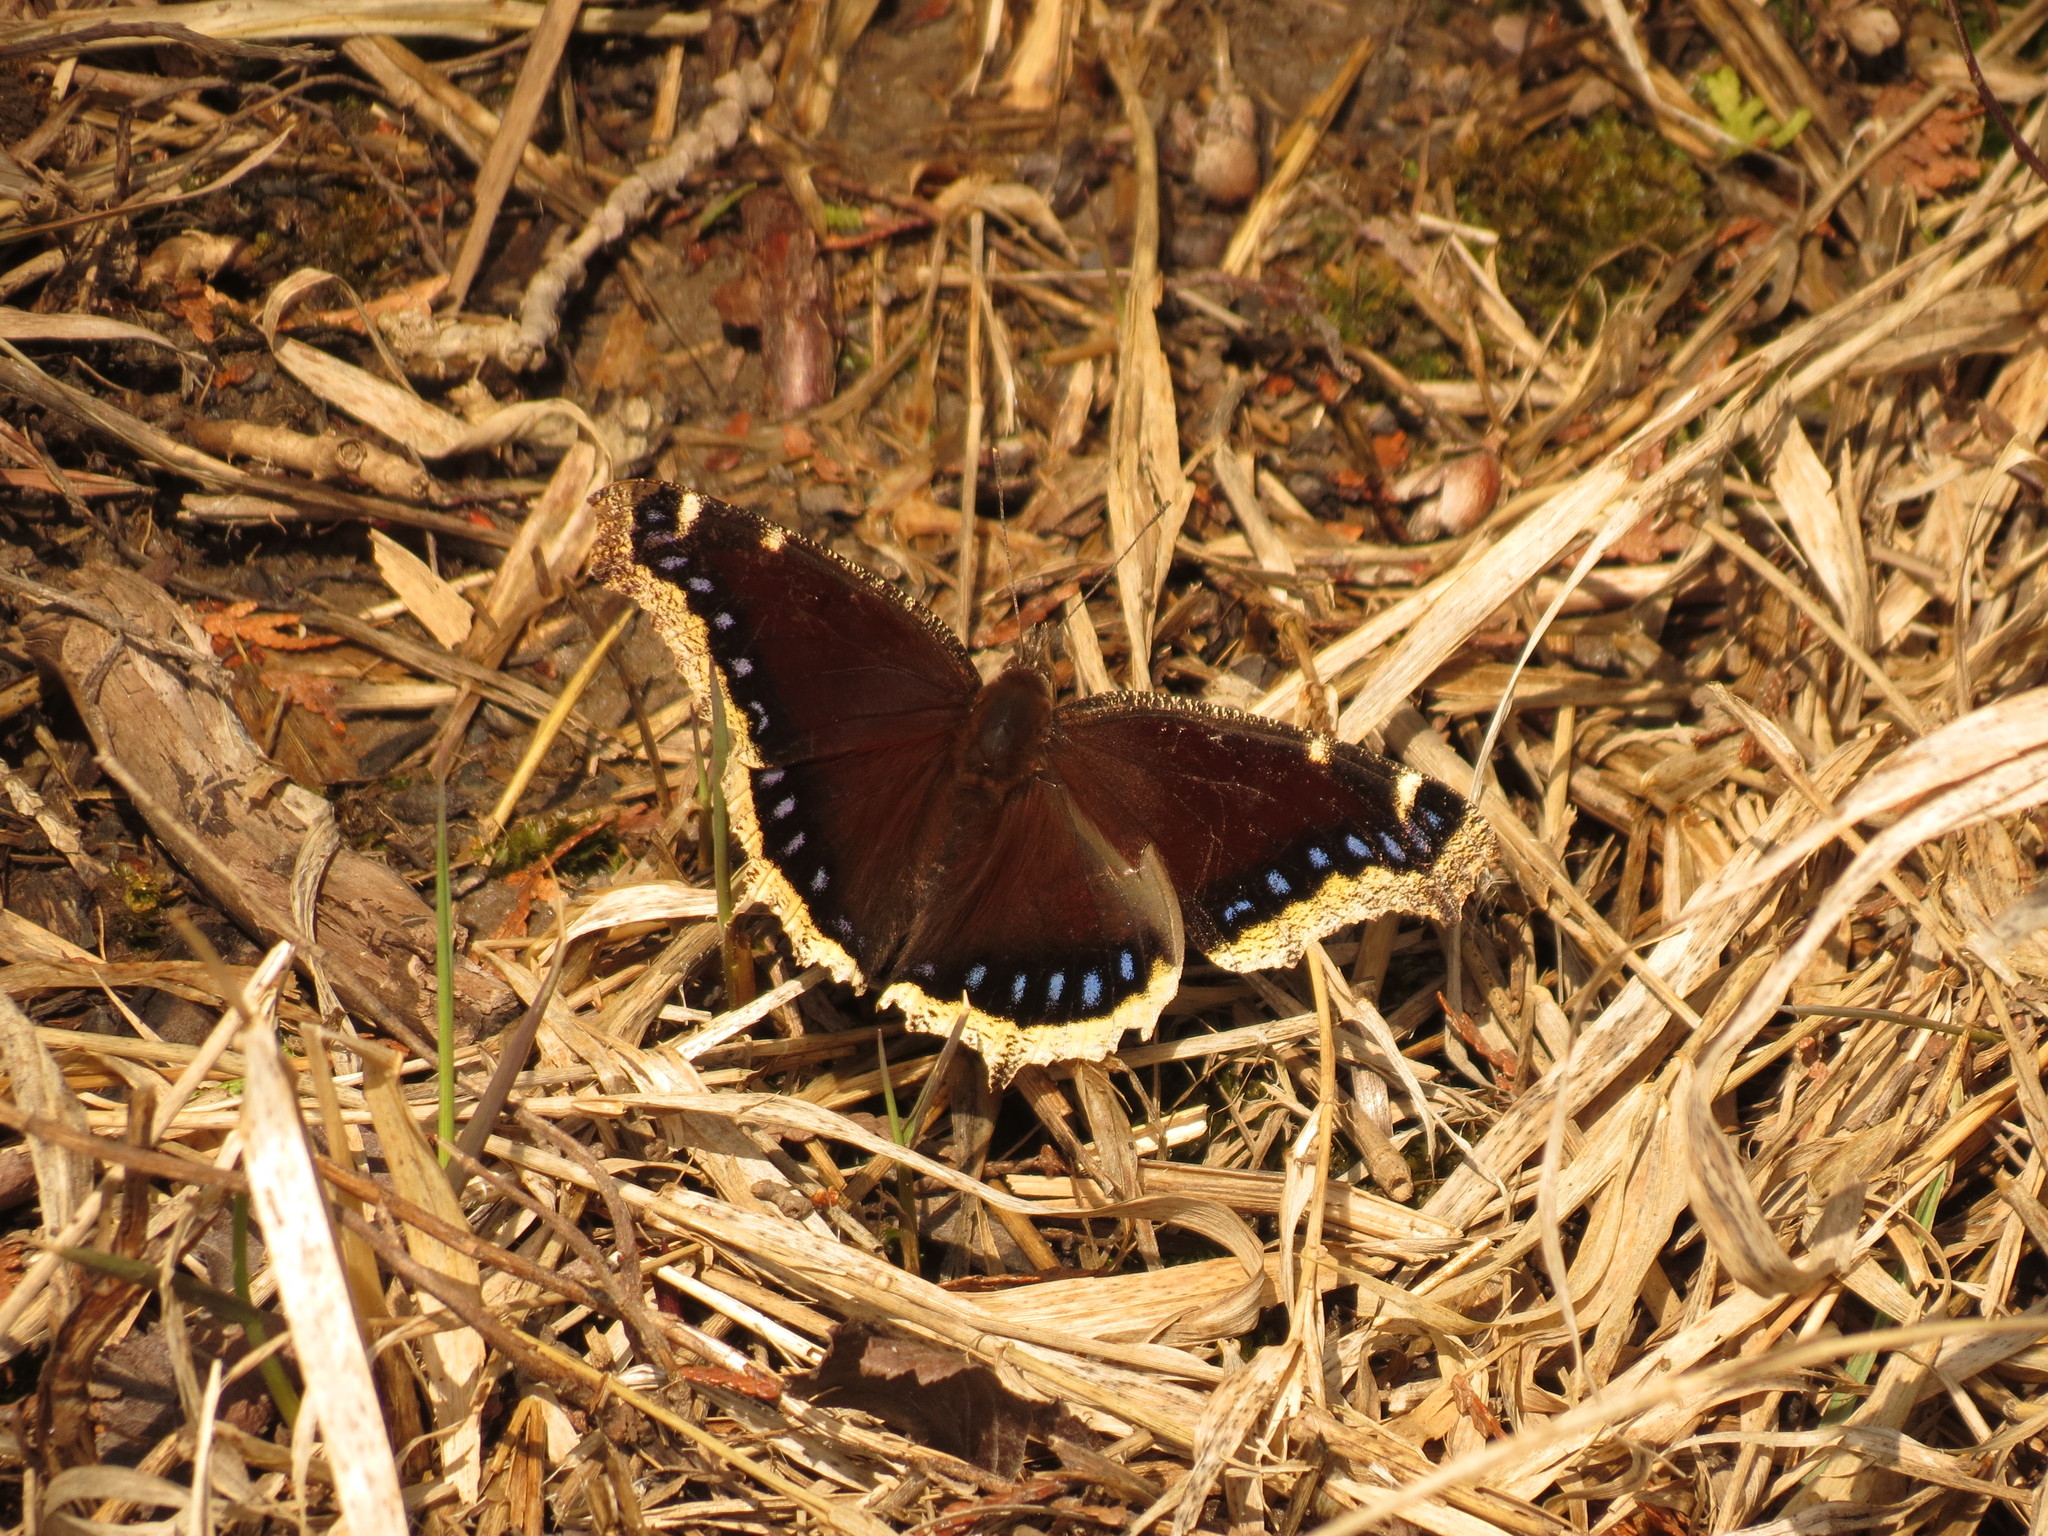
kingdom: Animalia
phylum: Arthropoda
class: Insecta
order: Lepidoptera
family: Nymphalidae
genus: Nymphalis
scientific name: Nymphalis antiopa
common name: Camberwell beauty
